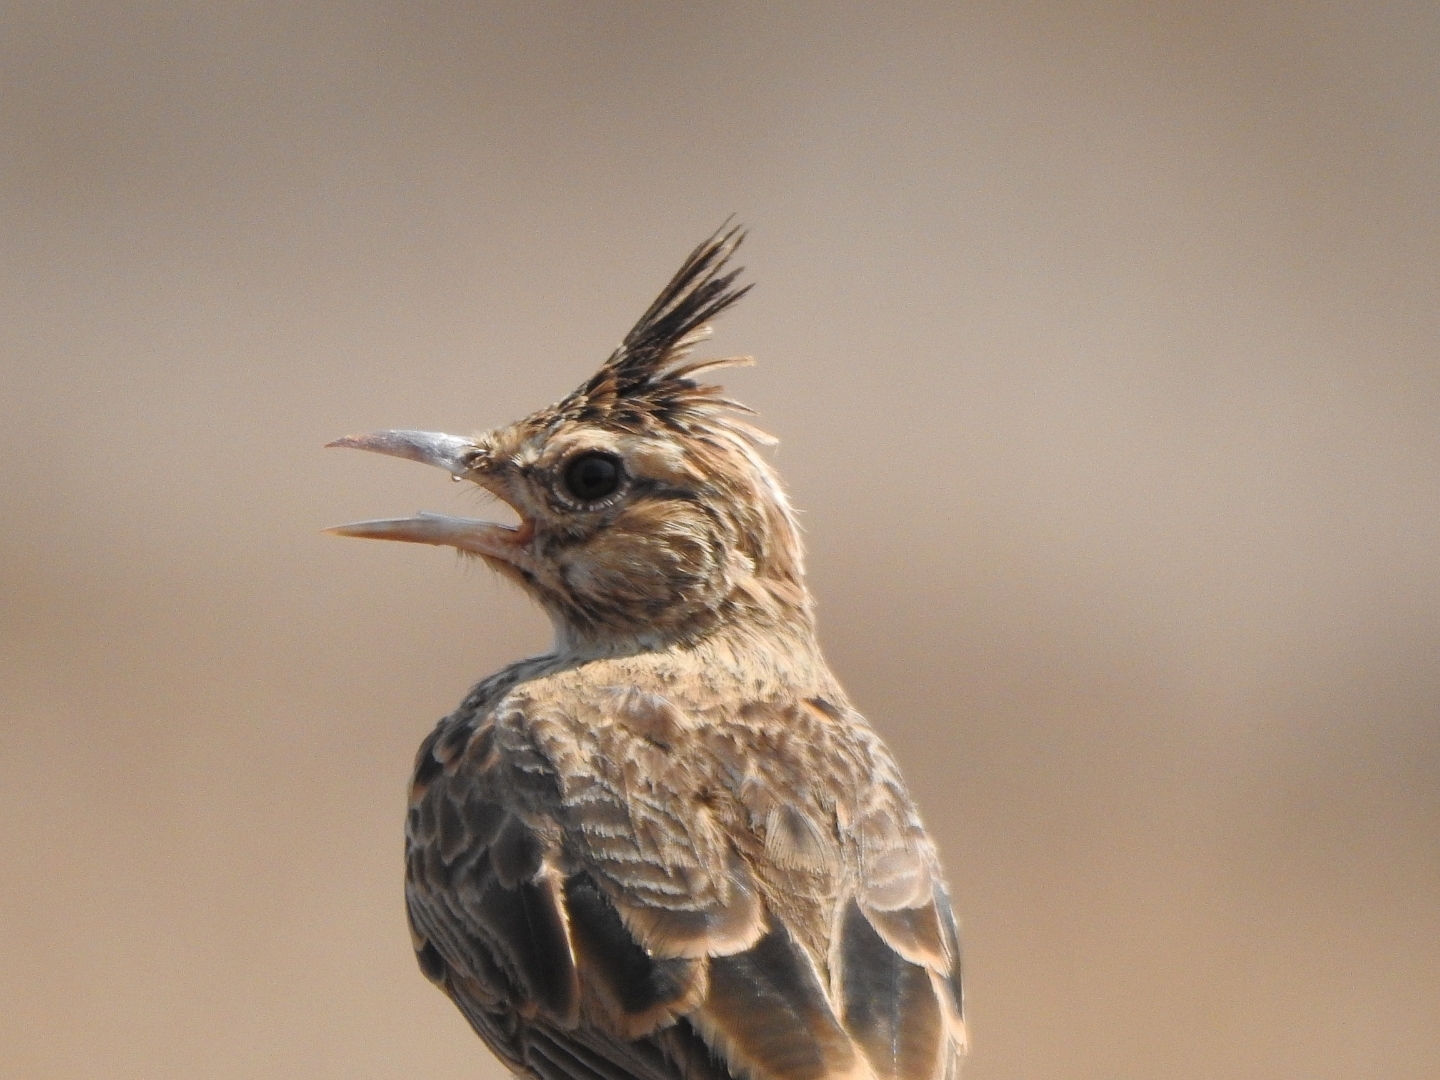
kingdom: Animalia
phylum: Chordata
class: Aves
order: Passeriformes
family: Alaudidae
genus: Galerida
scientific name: Galerida malabarica
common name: Malabar lark
